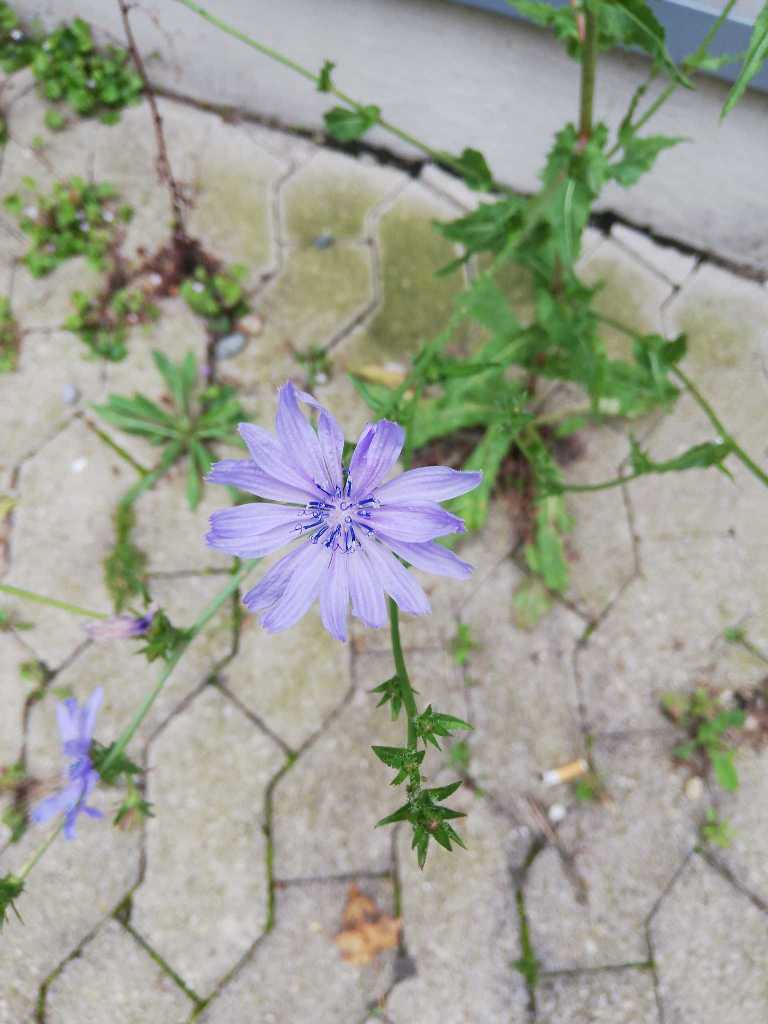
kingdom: Plantae
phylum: Tracheophyta
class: Magnoliopsida
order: Asterales
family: Asteraceae
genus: Cichorium
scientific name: Cichorium intybus
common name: Chicory
